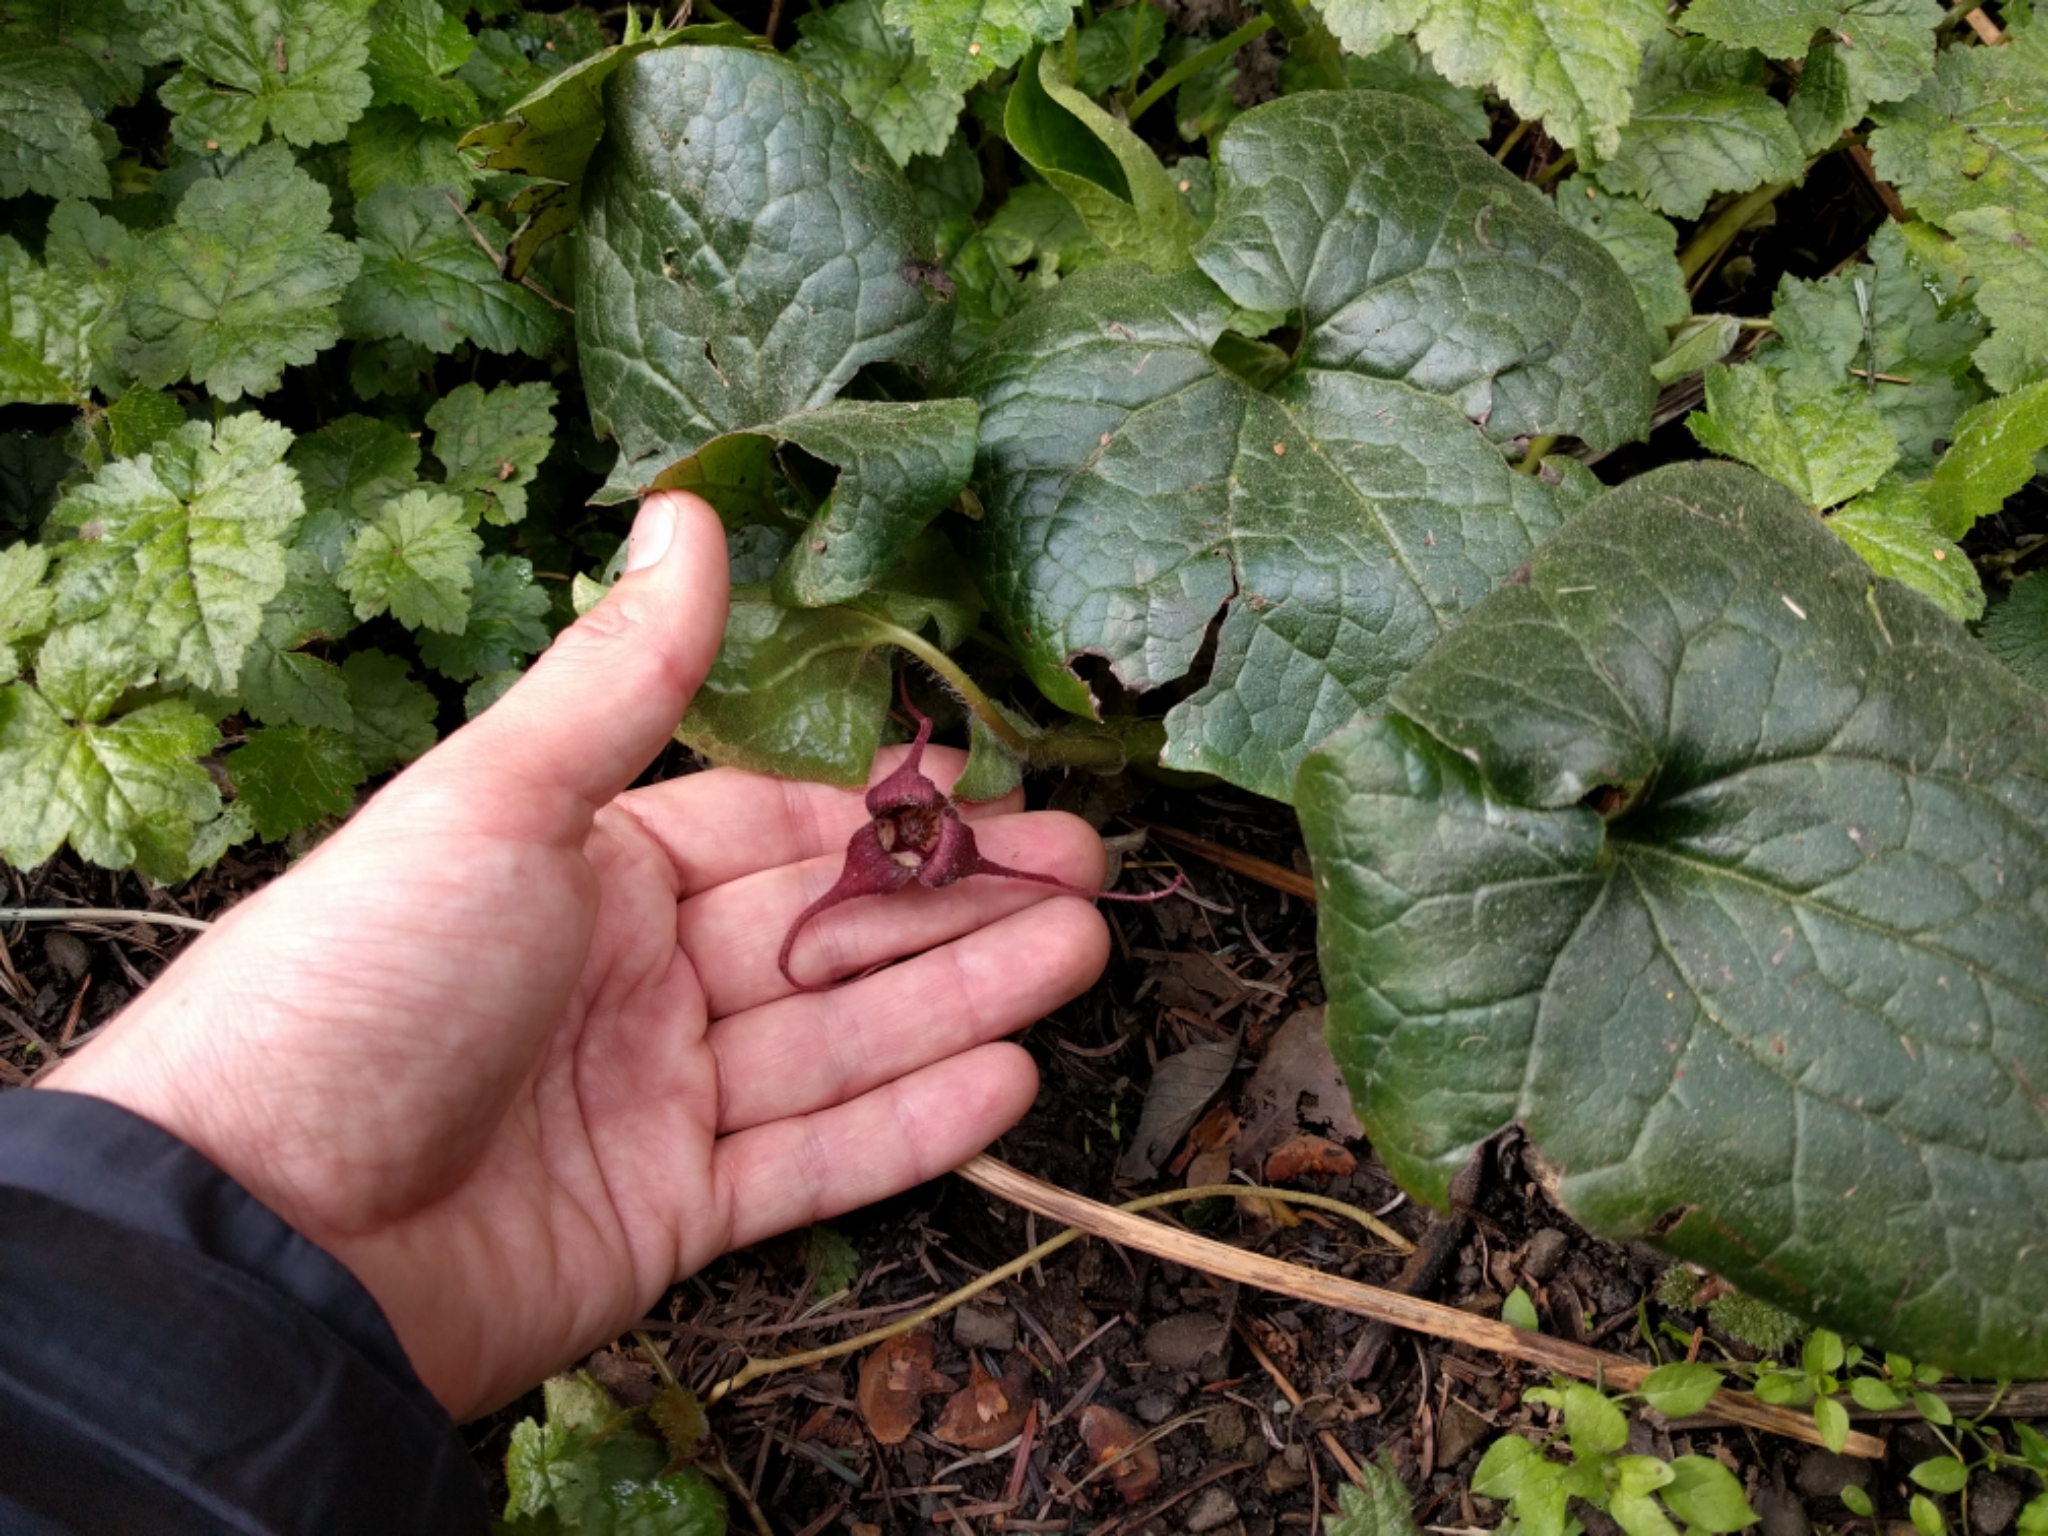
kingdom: Plantae
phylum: Tracheophyta
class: Magnoliopsida
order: Piperales
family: Aristolochiaceae
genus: Asarum
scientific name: Asarum caudatum
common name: Wild ginger
